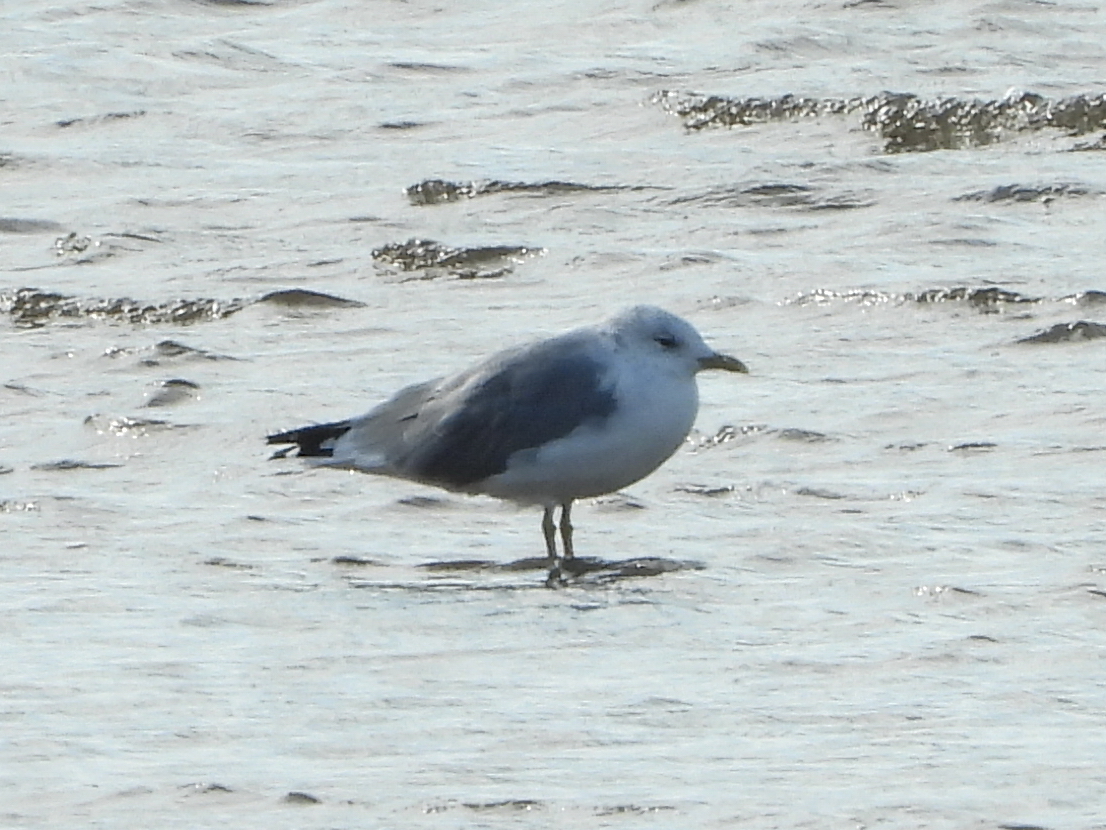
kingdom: Animalia
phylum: Chordata
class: Aves
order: Charadriiformes
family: Laridae
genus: Larus
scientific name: Larus canus
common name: Mew gull
